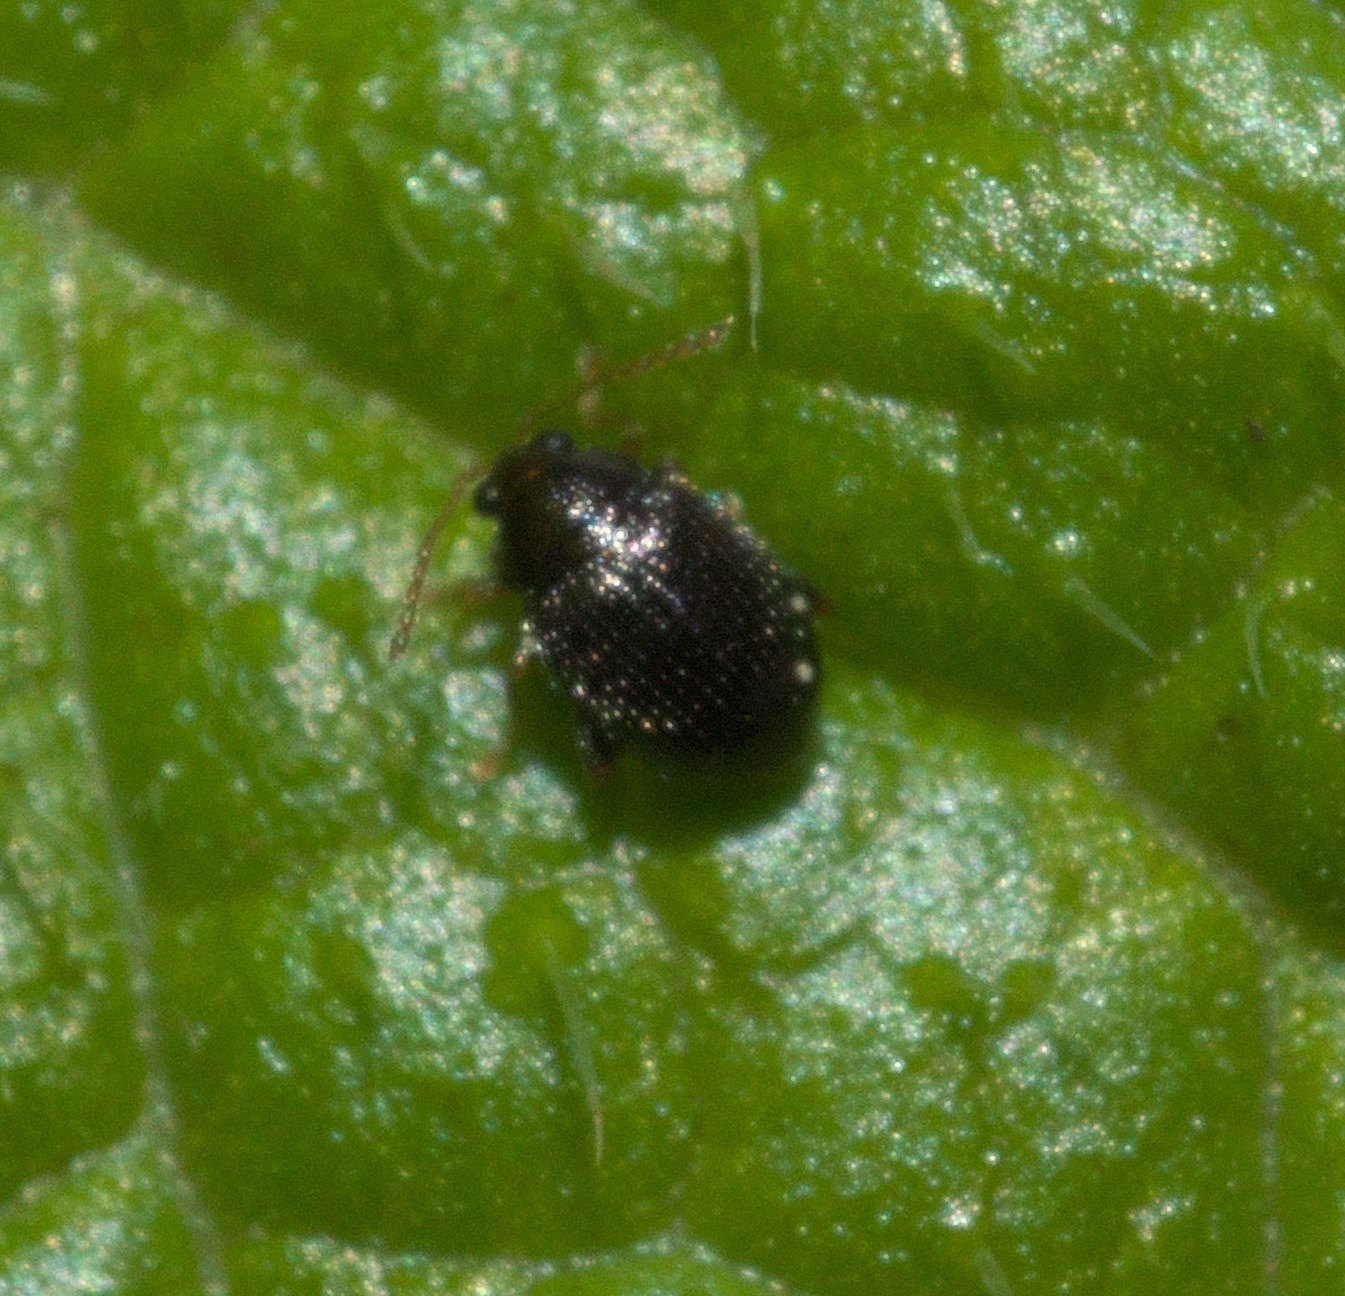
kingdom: Animalia
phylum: Arthropoda
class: Insecta
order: Coleoptera
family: Chrysomelidae
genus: Epitrix
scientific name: Epitrix brevis
